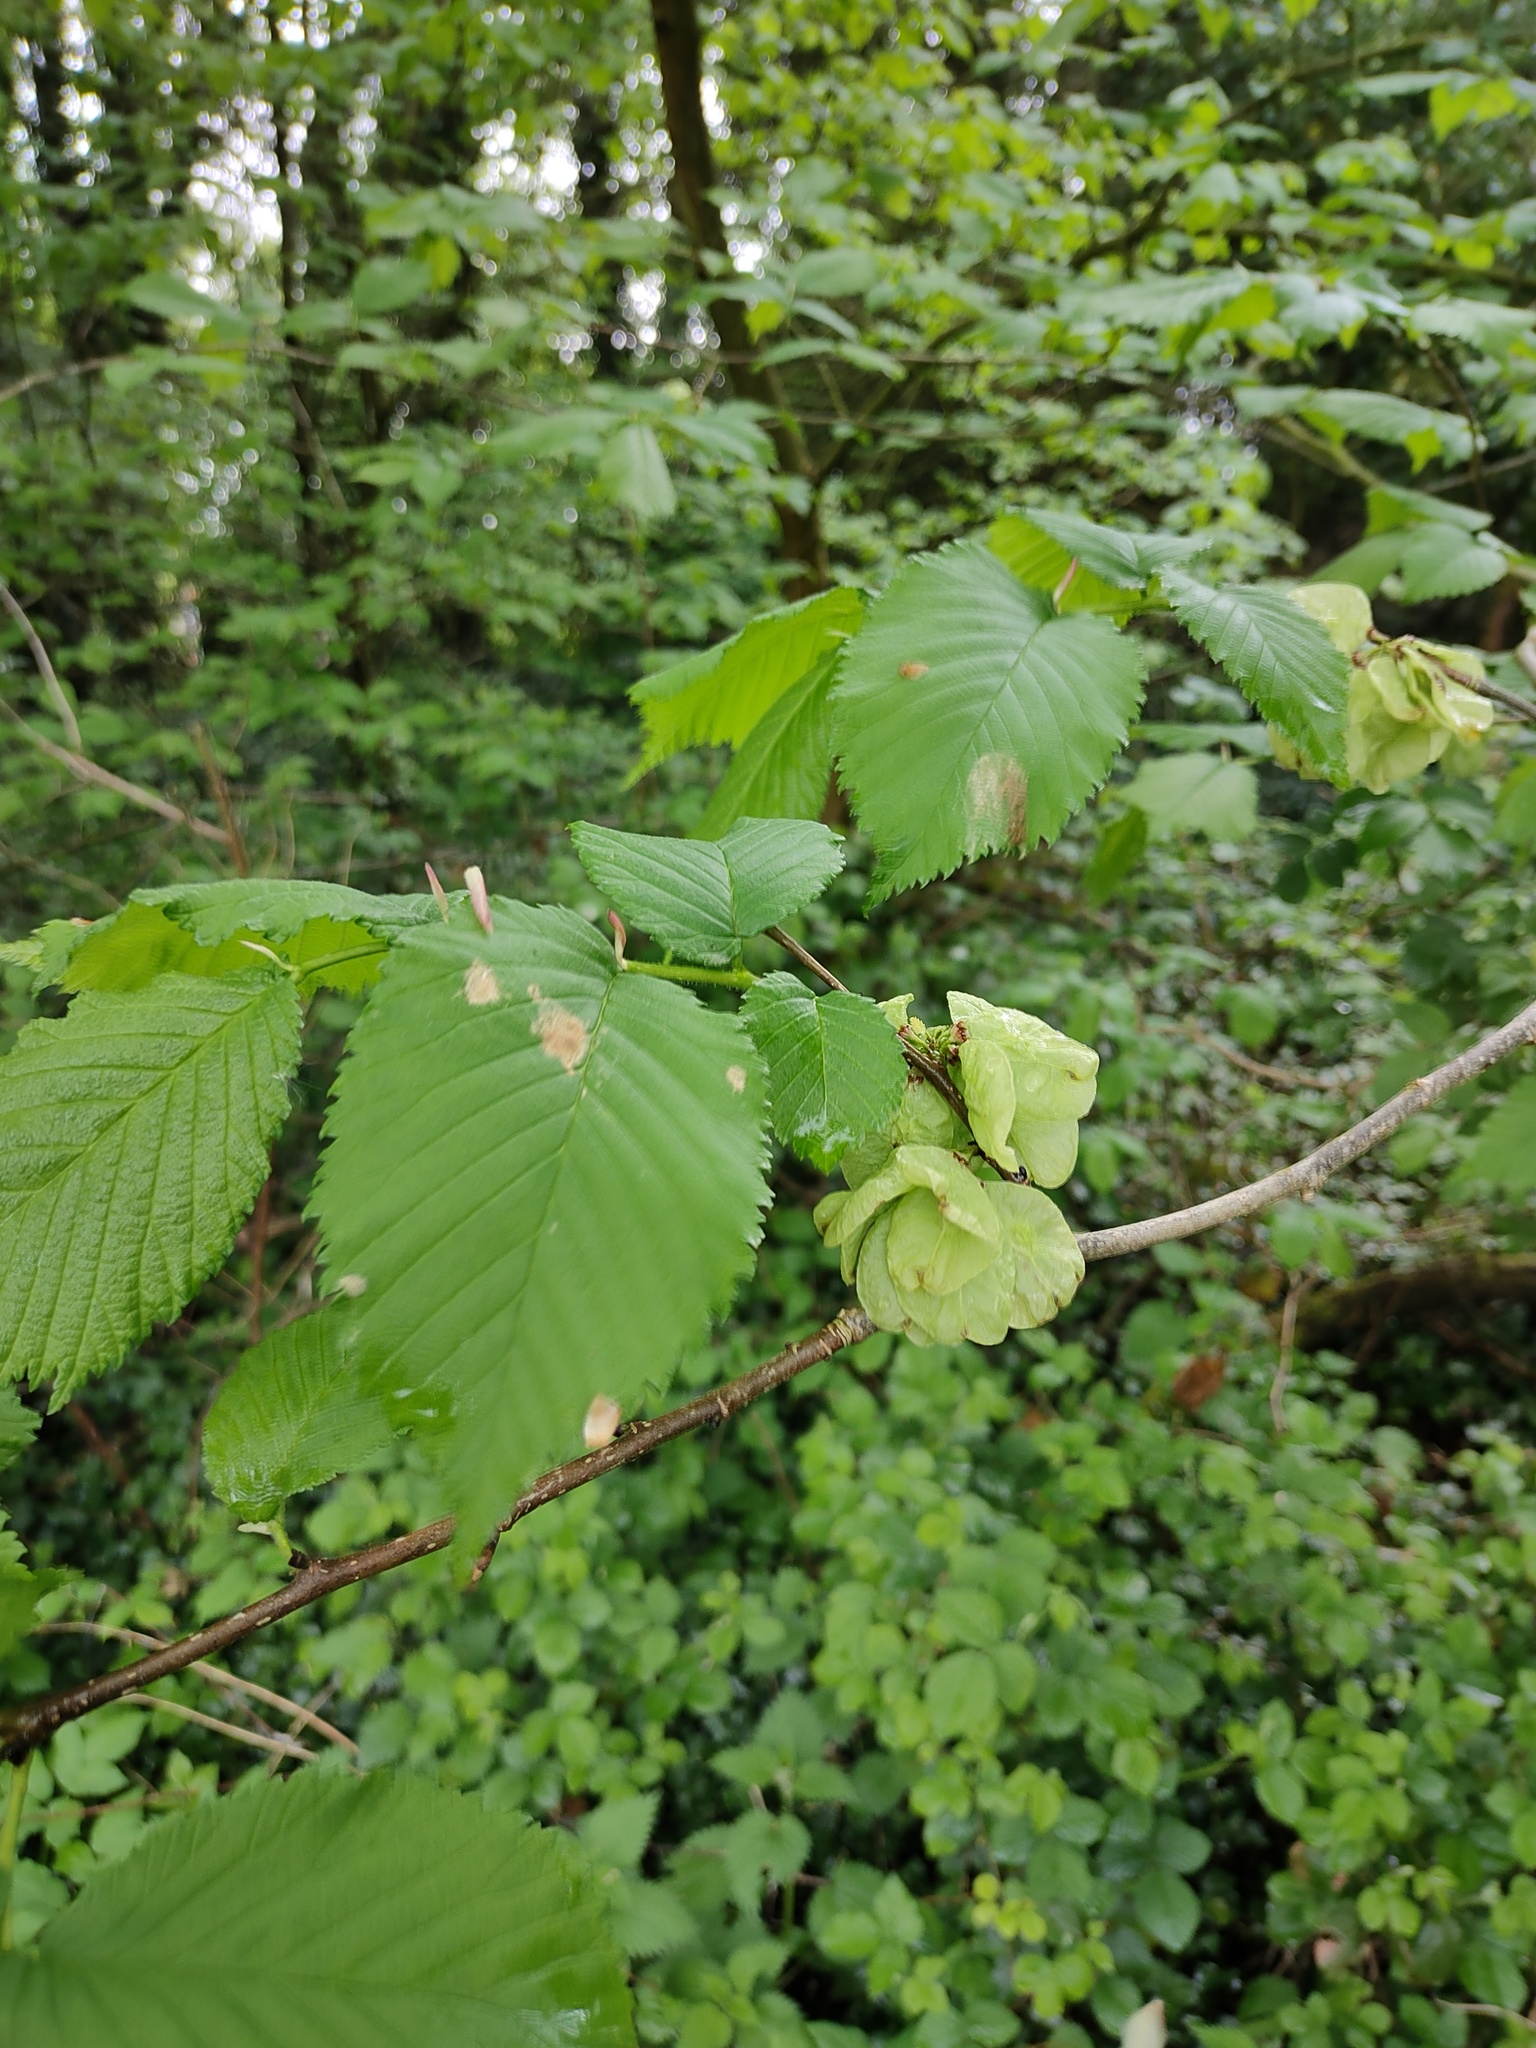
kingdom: Plantae
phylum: Tracheophyta
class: Magnoliopsida
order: Rosales
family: Ulmaceae
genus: Ulmus
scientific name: Ulmus glabra
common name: Wych elm
